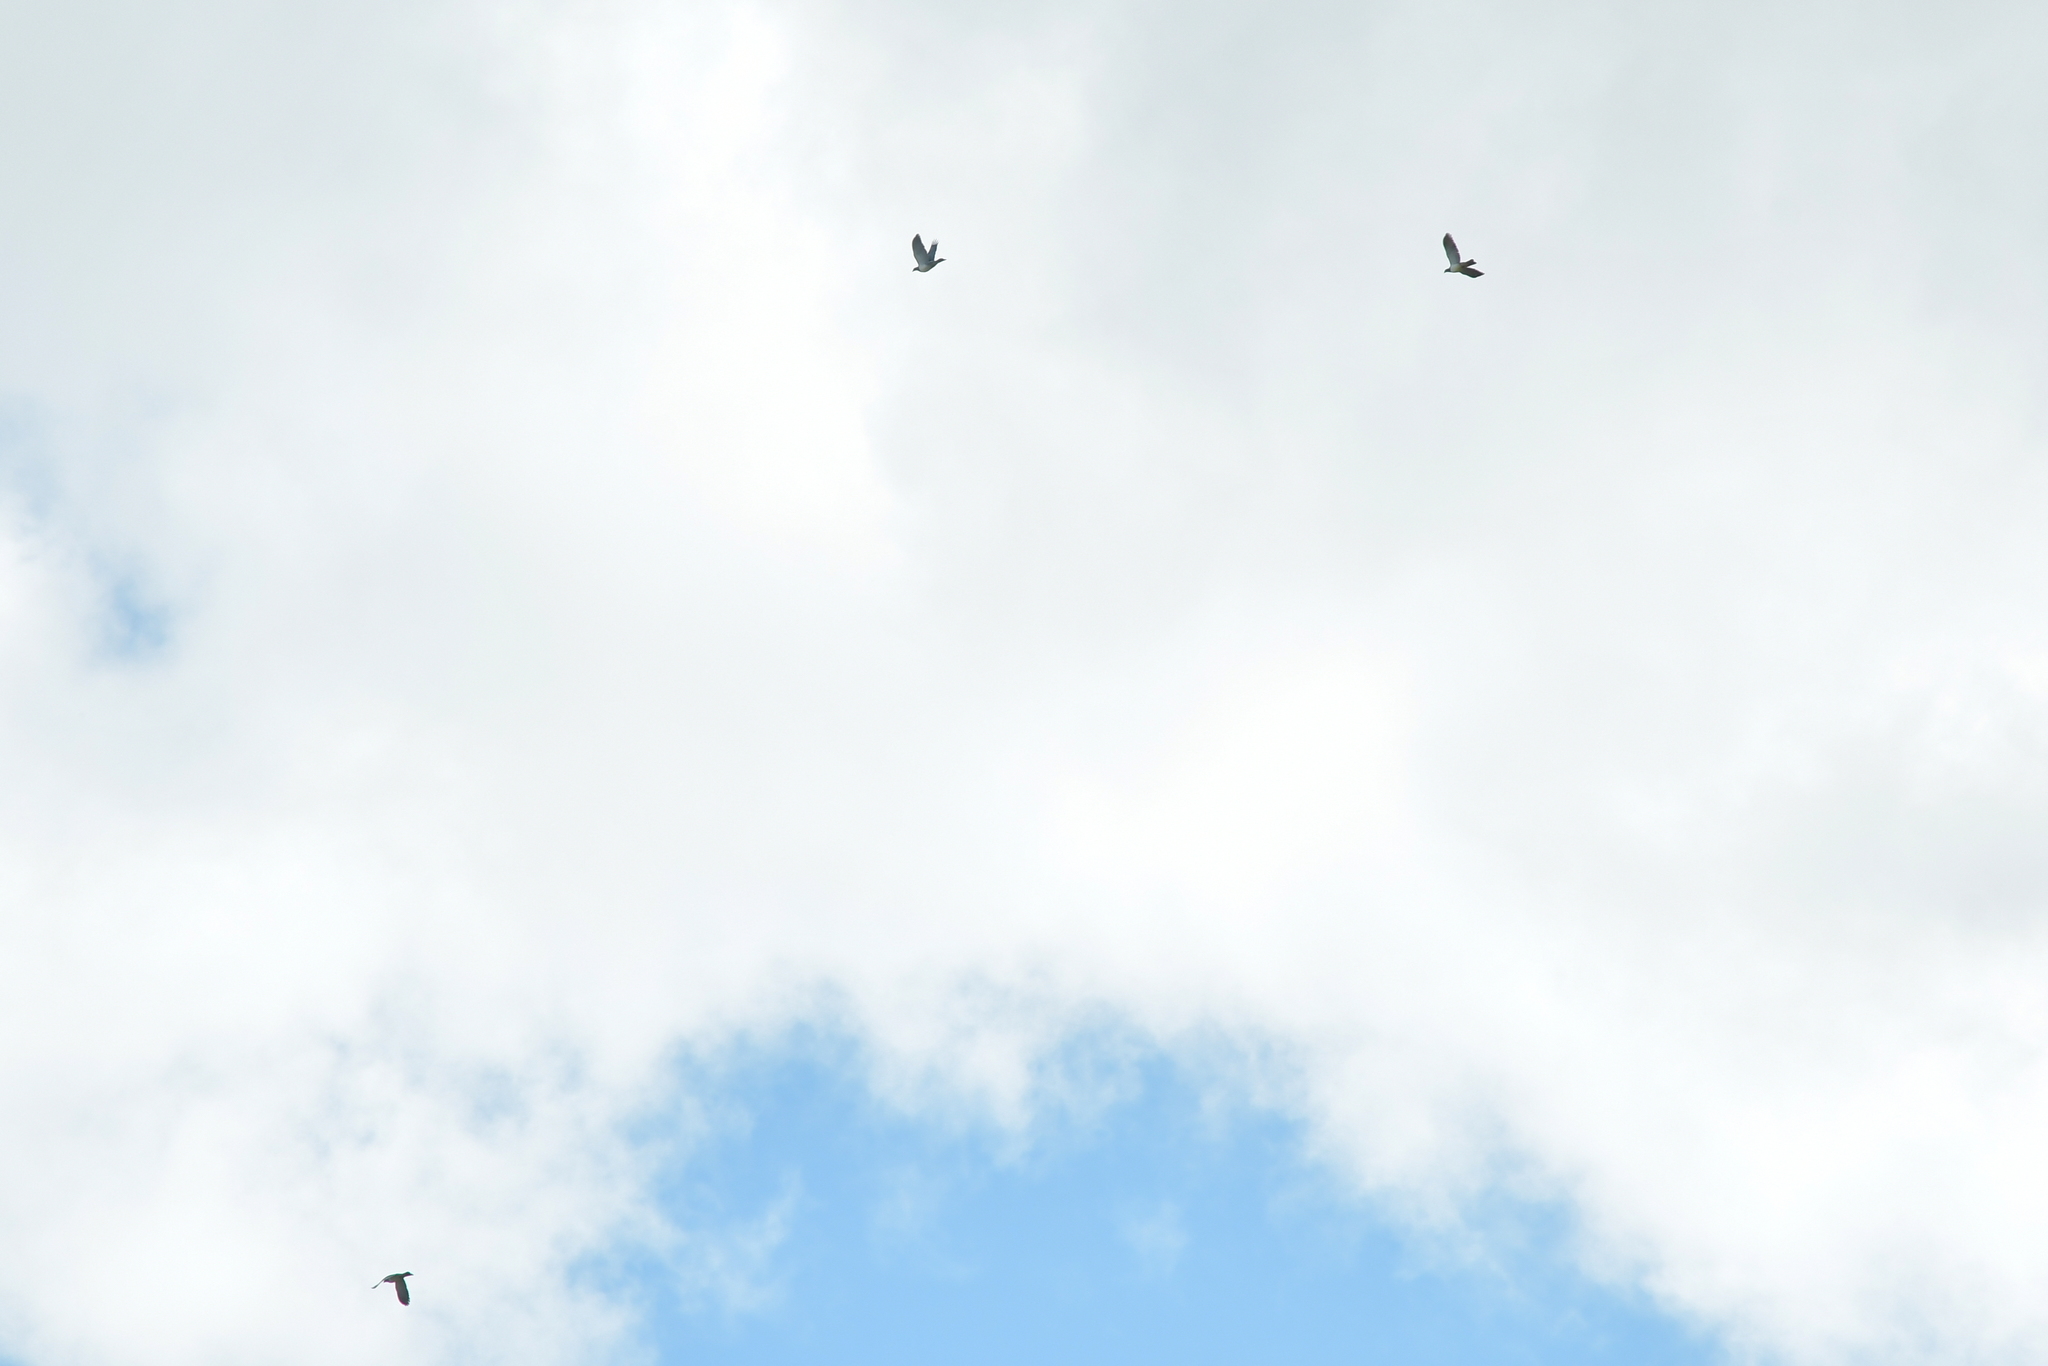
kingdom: Animalia
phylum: Chordata
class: Aves
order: Columbiformes
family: Columbidae
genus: Hemiphaga
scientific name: Hemiphaga novaeseelandiae
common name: New zealand pigeon
